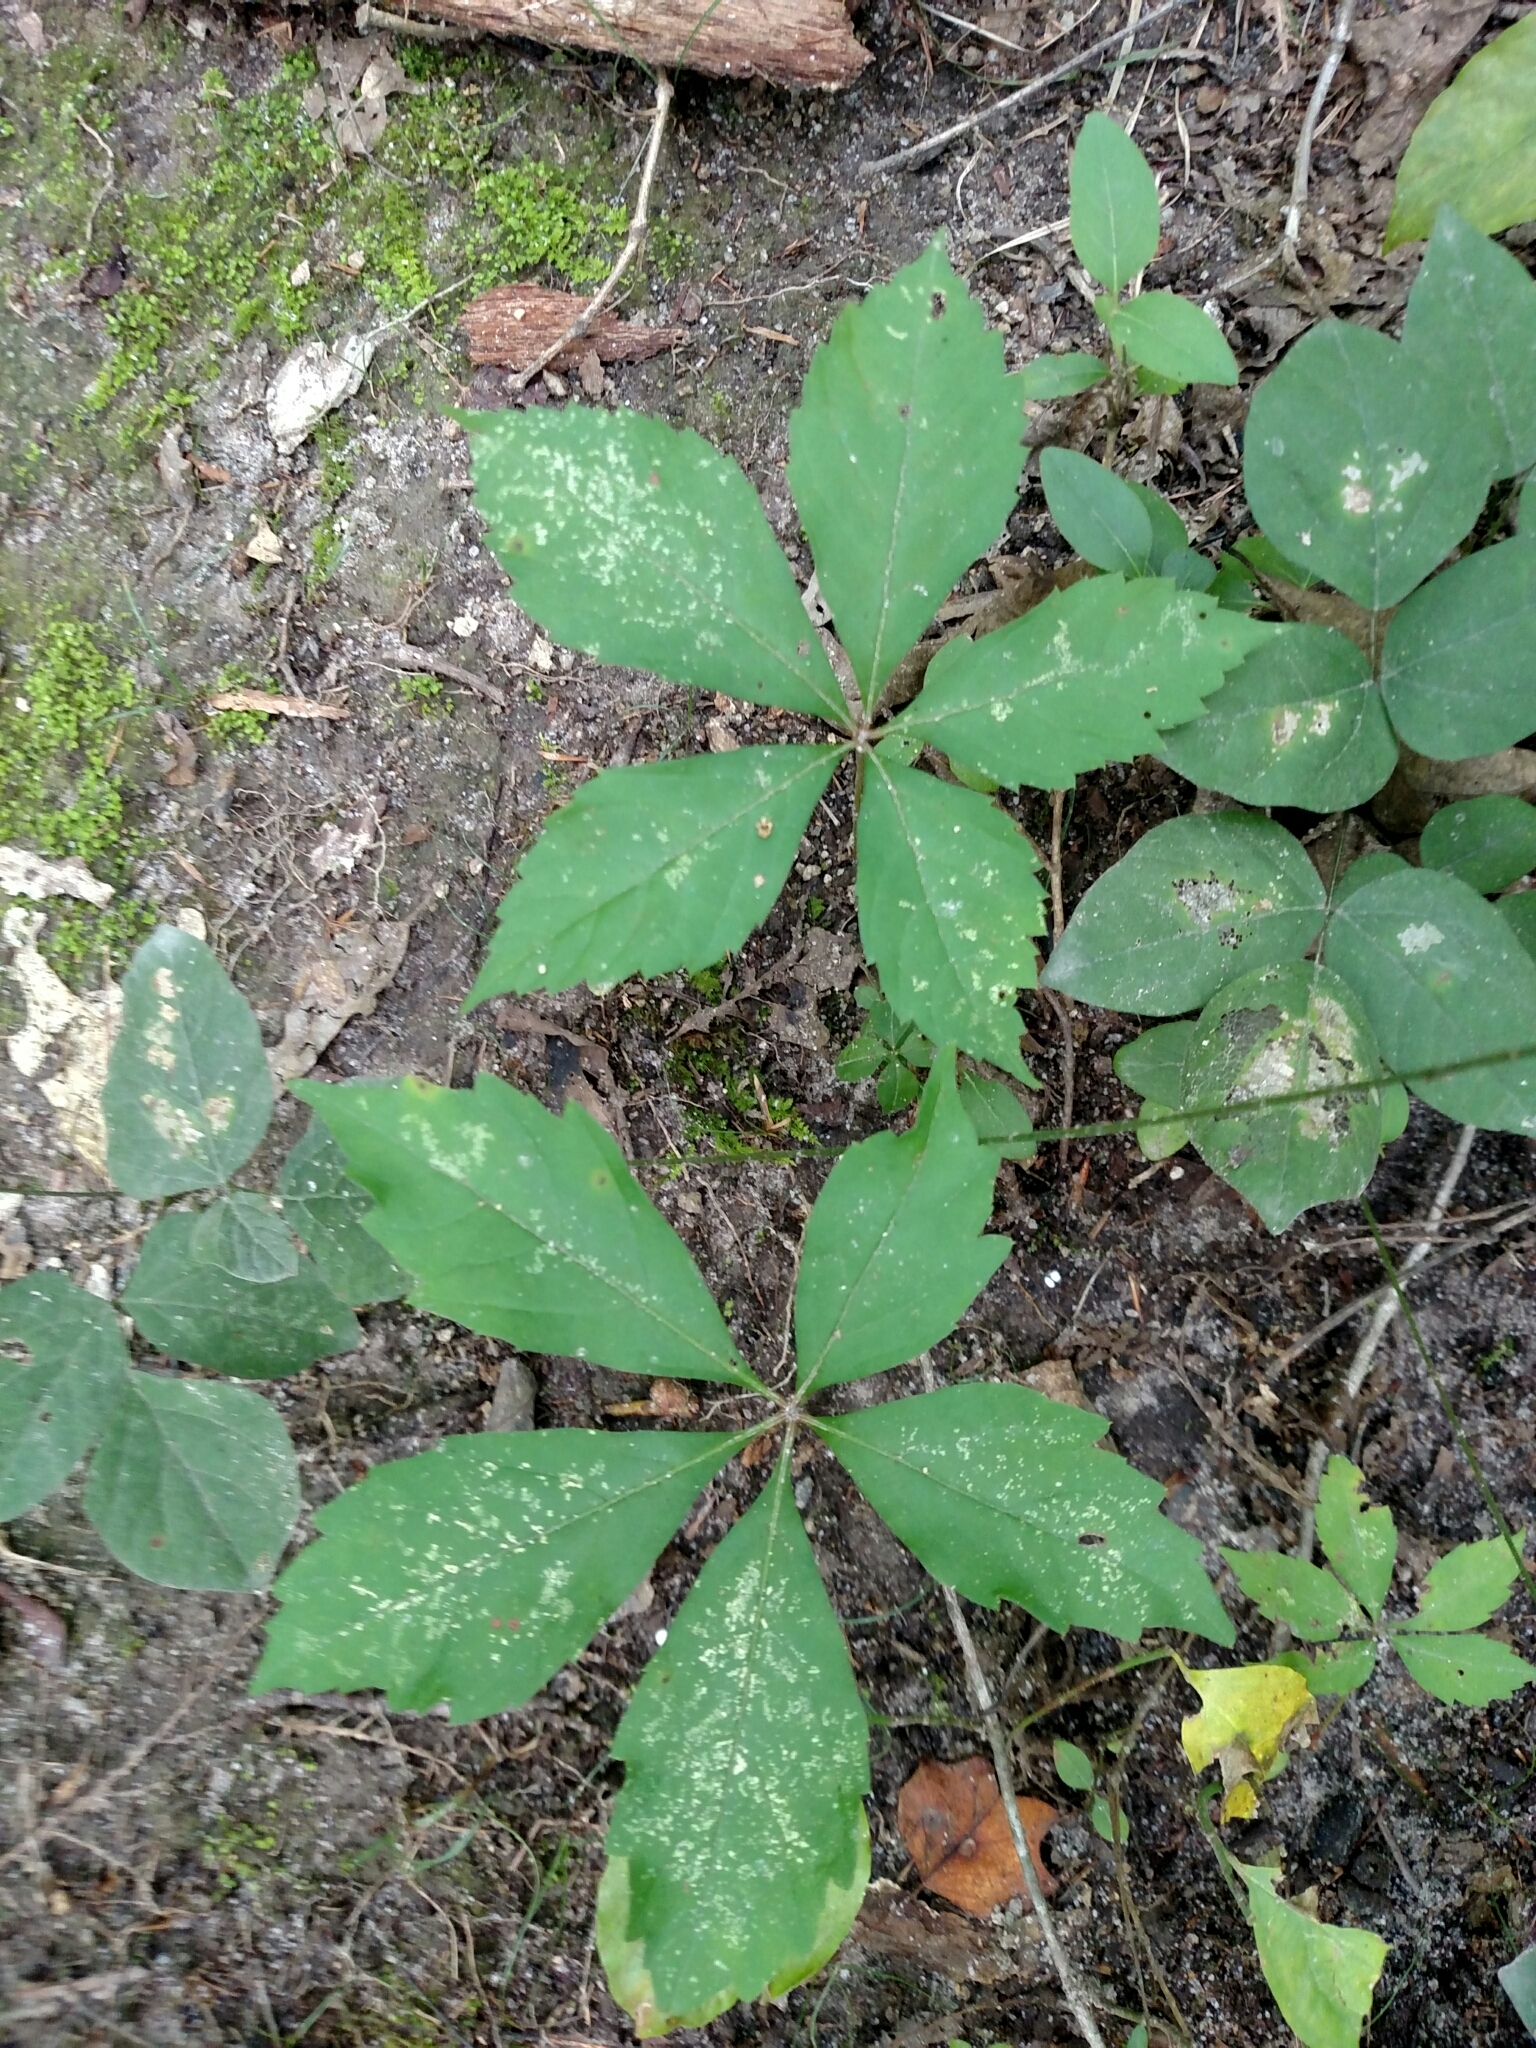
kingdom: Plantae
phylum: Tracheophyta
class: Magnoliopsida
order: Vitales
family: Vitaceae
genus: Parthenocissus
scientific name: Parthenocissus quinquefolia
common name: Virginia-creeper
